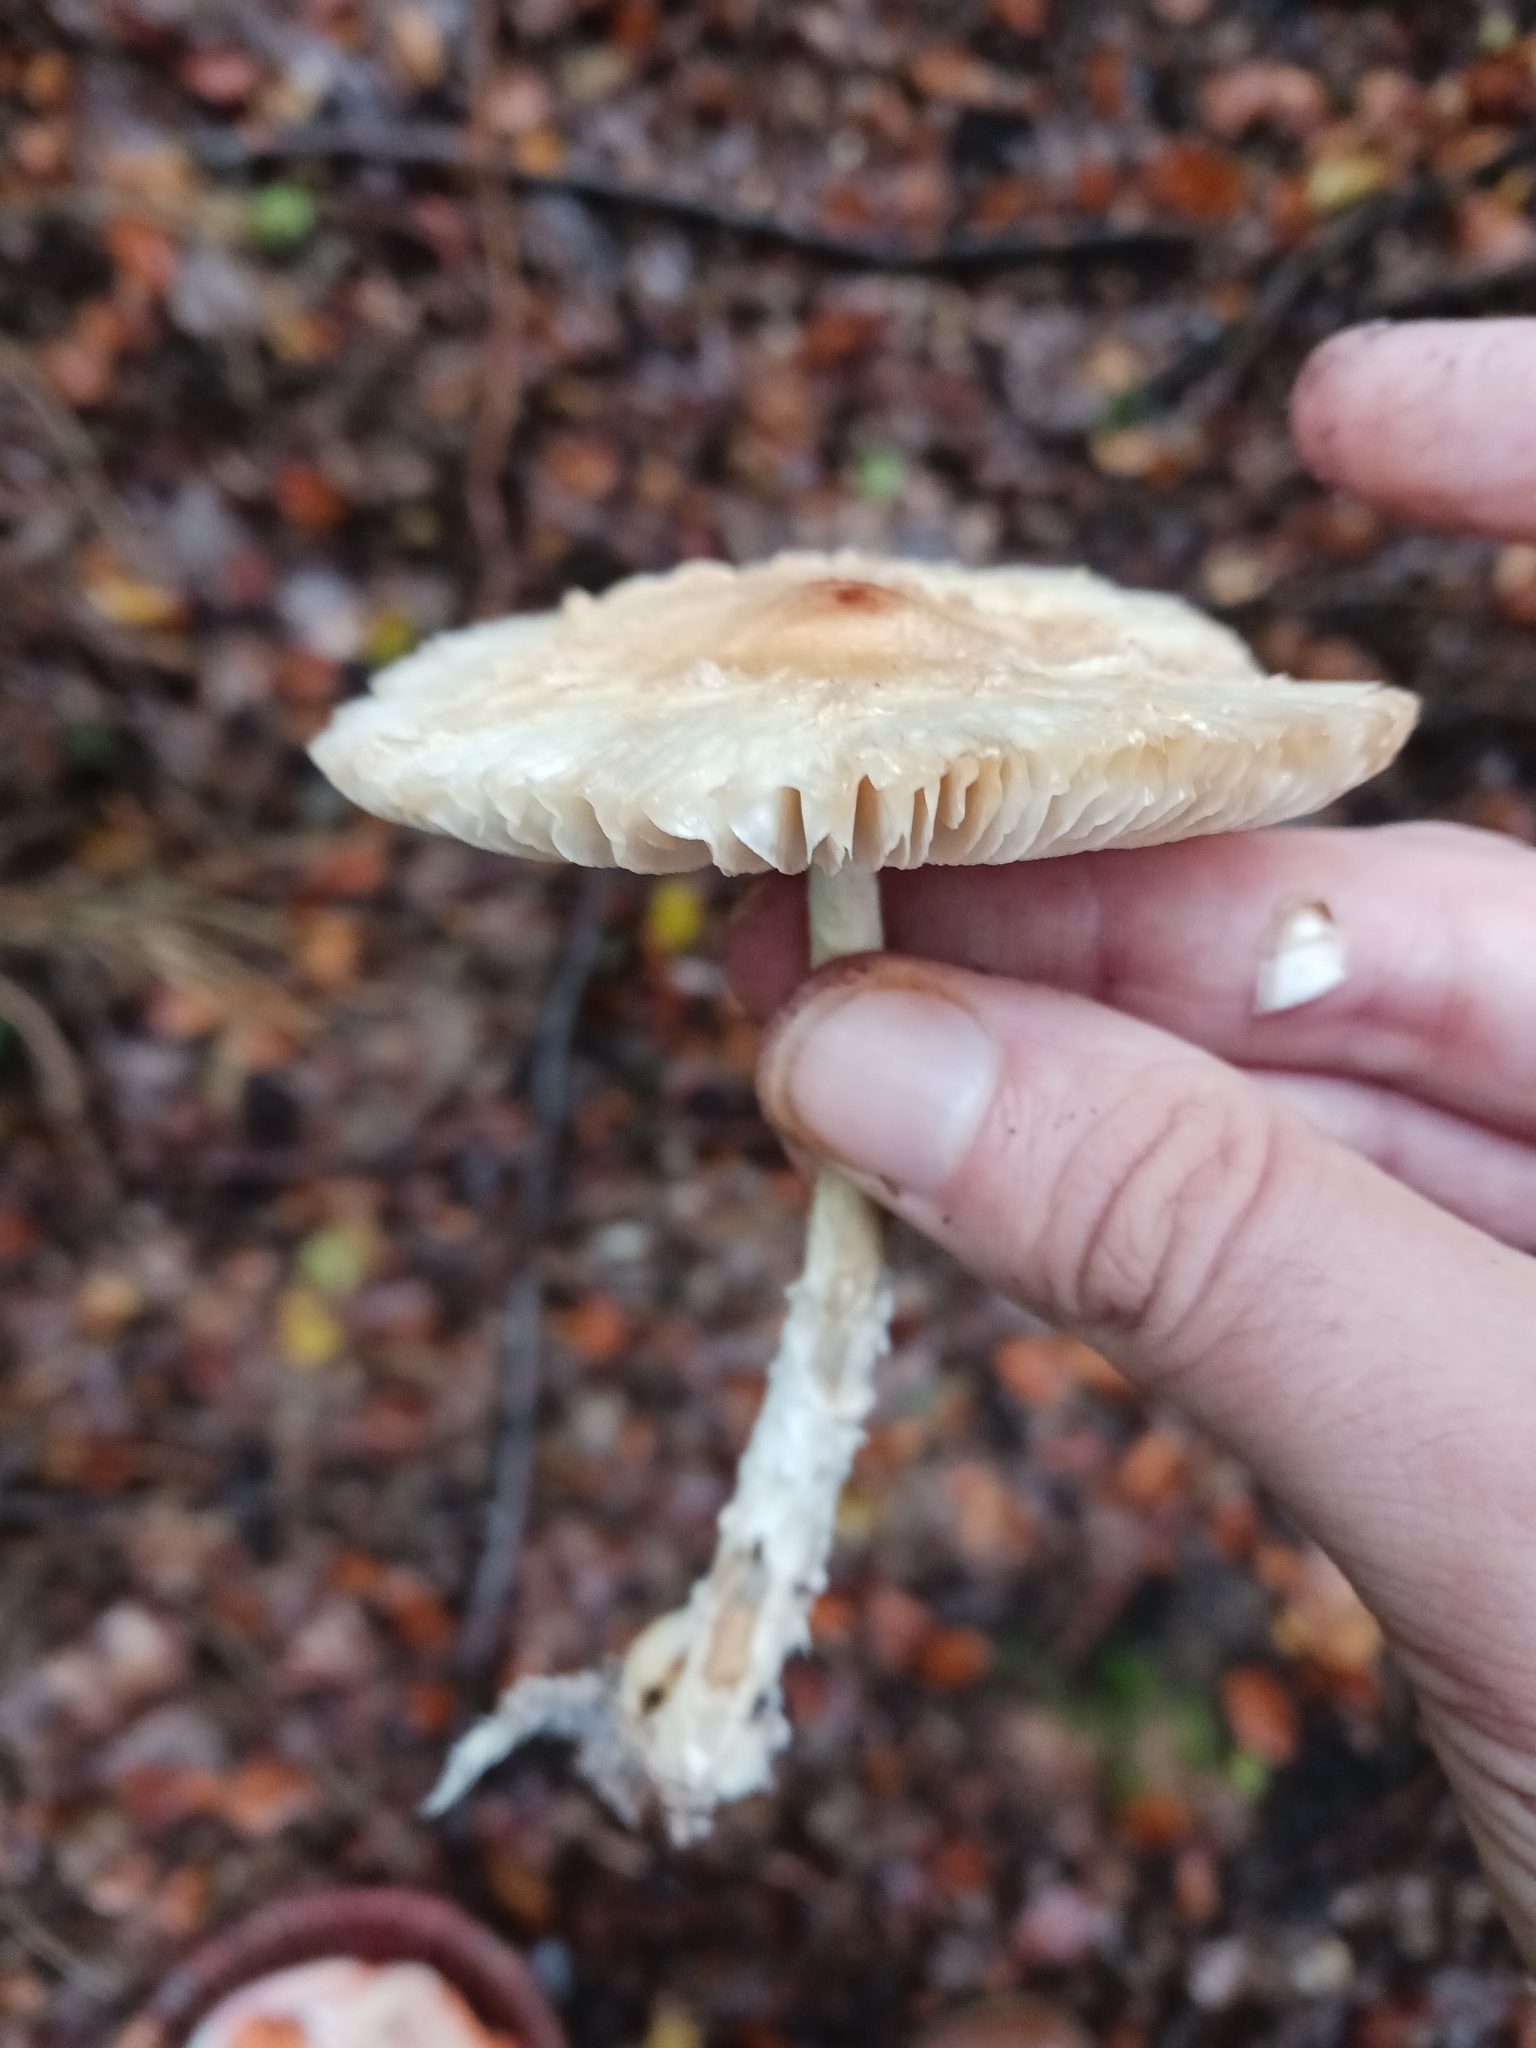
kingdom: Fungi
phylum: Basidiomycota
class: Agaricomycetes
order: Agaricales
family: Agaricaceae
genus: Lepiota
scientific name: Lepiota clypeolaria
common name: Shield dapperling
